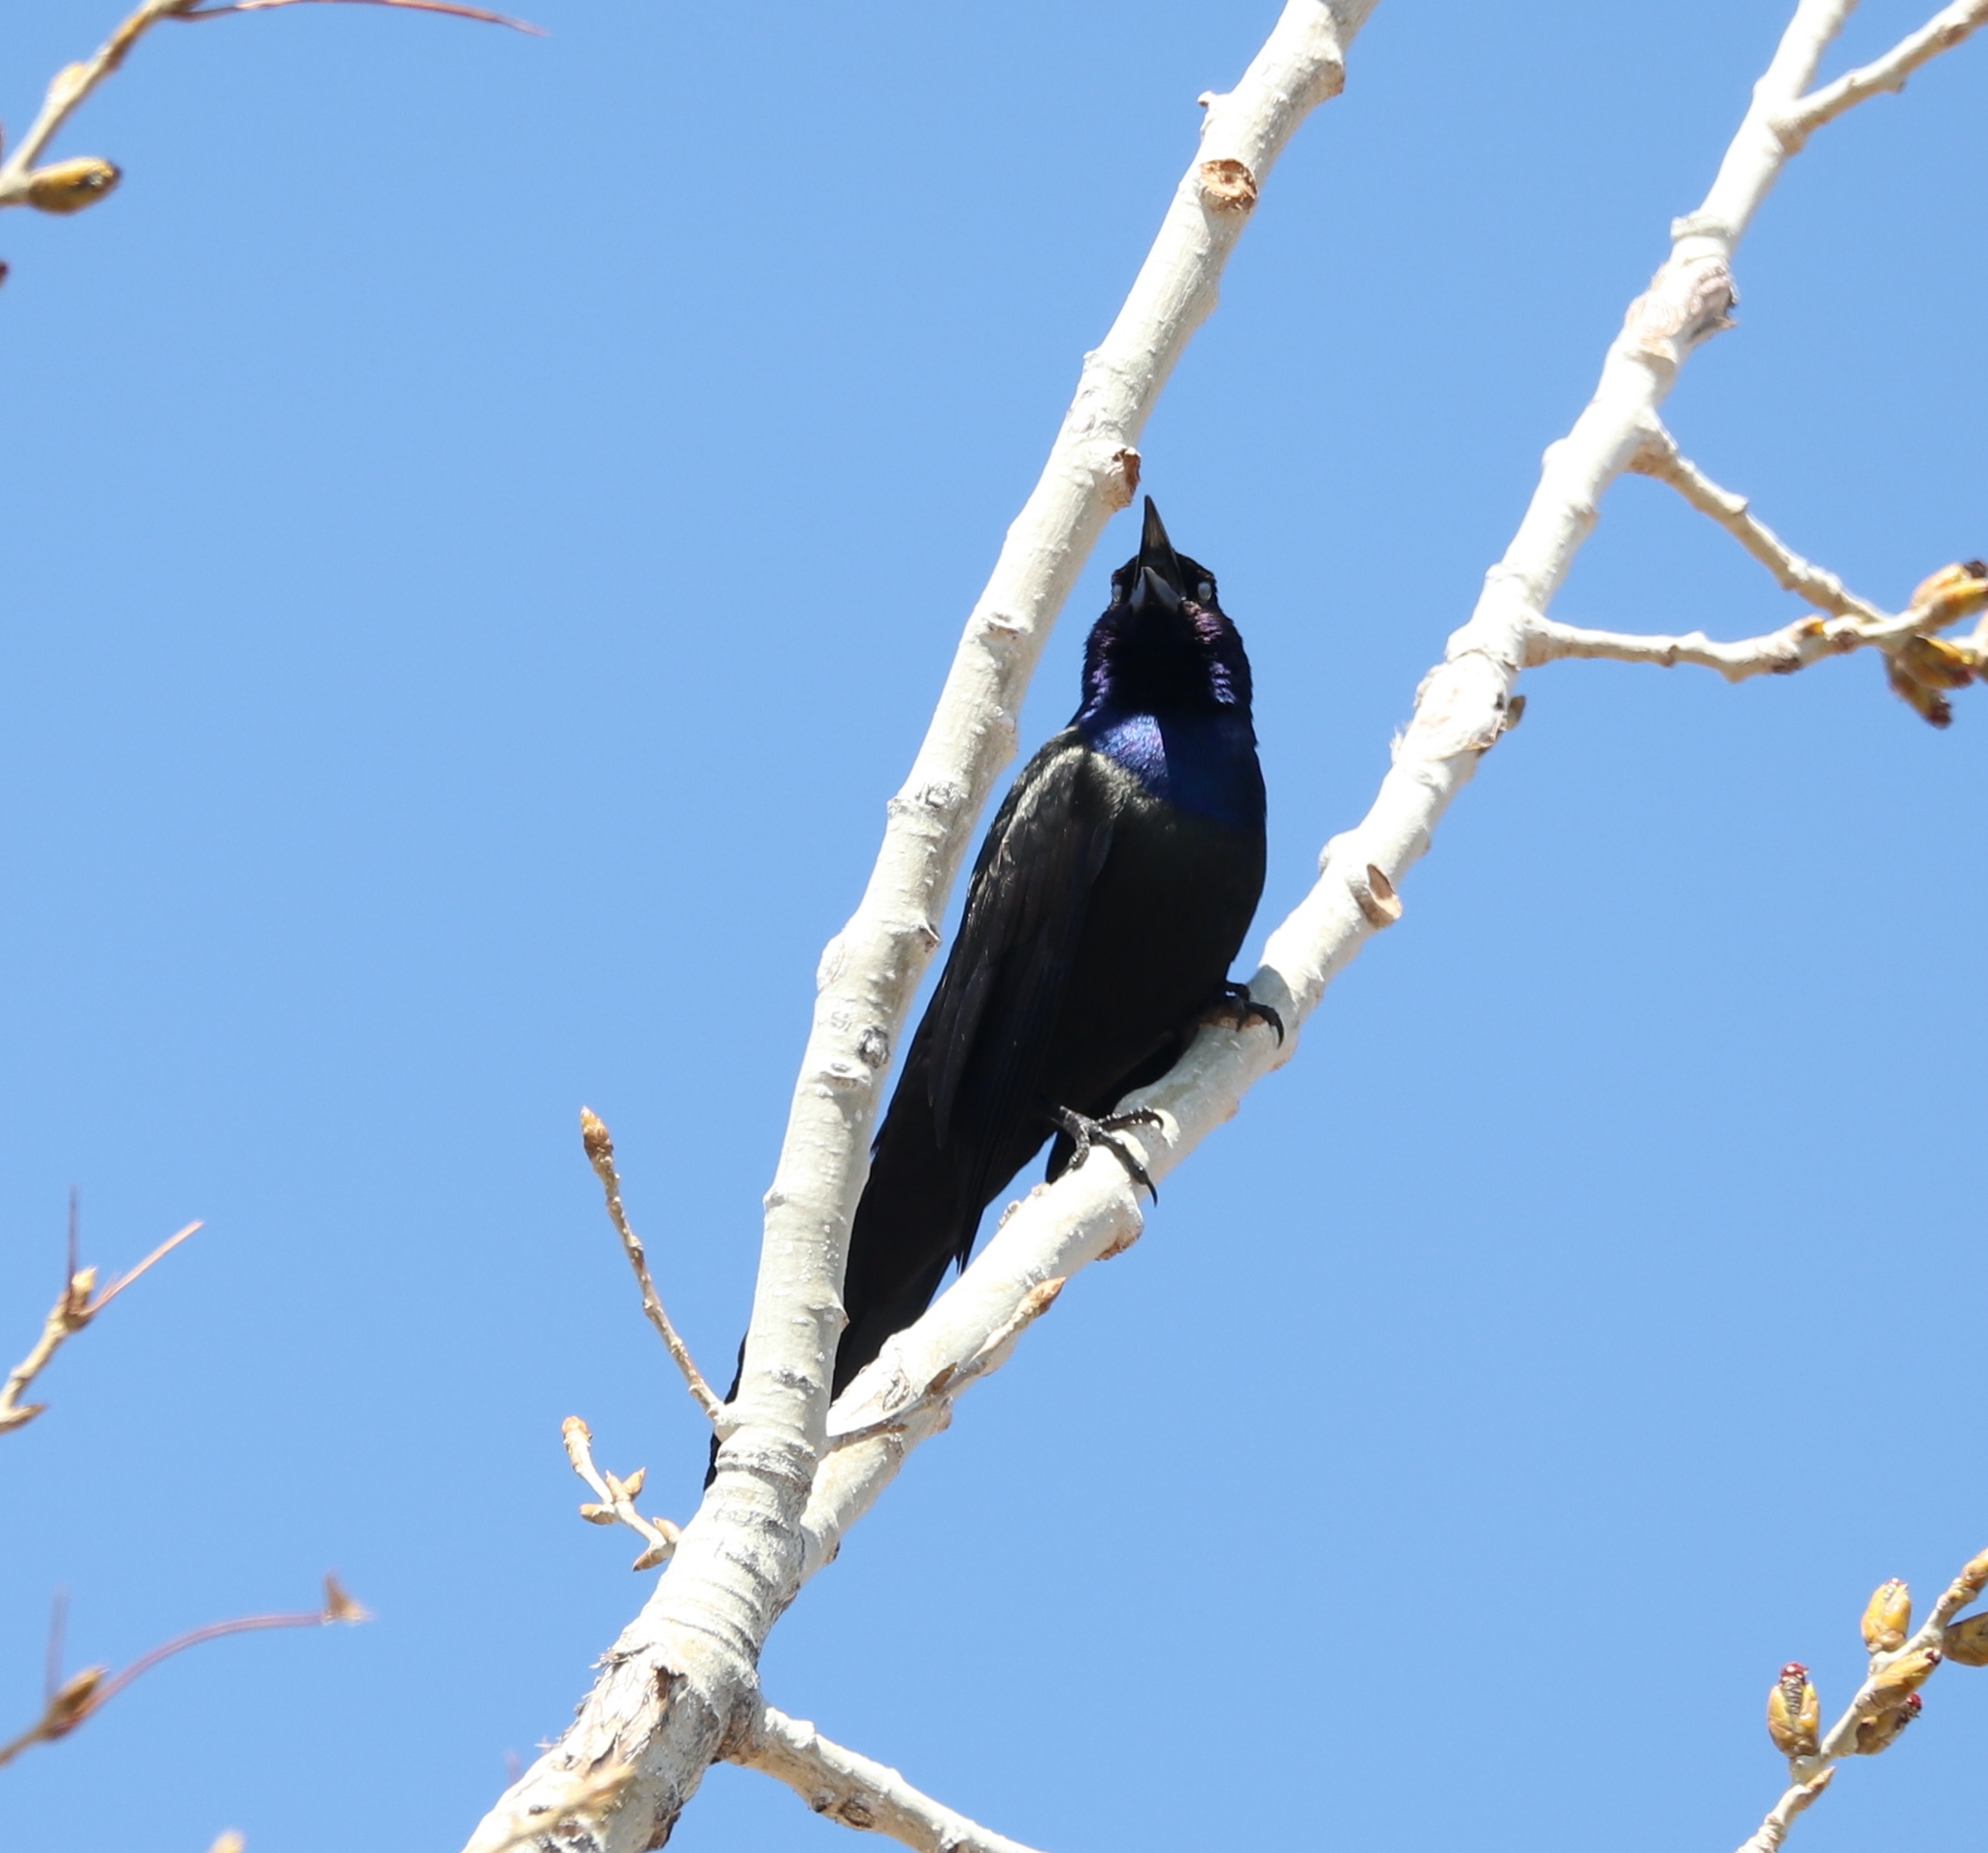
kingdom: Animalia
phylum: Chordata
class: Aves
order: Passeriformes
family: Icteridae
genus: Quiscalus
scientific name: Quiscalus quiscula
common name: Common grackle
